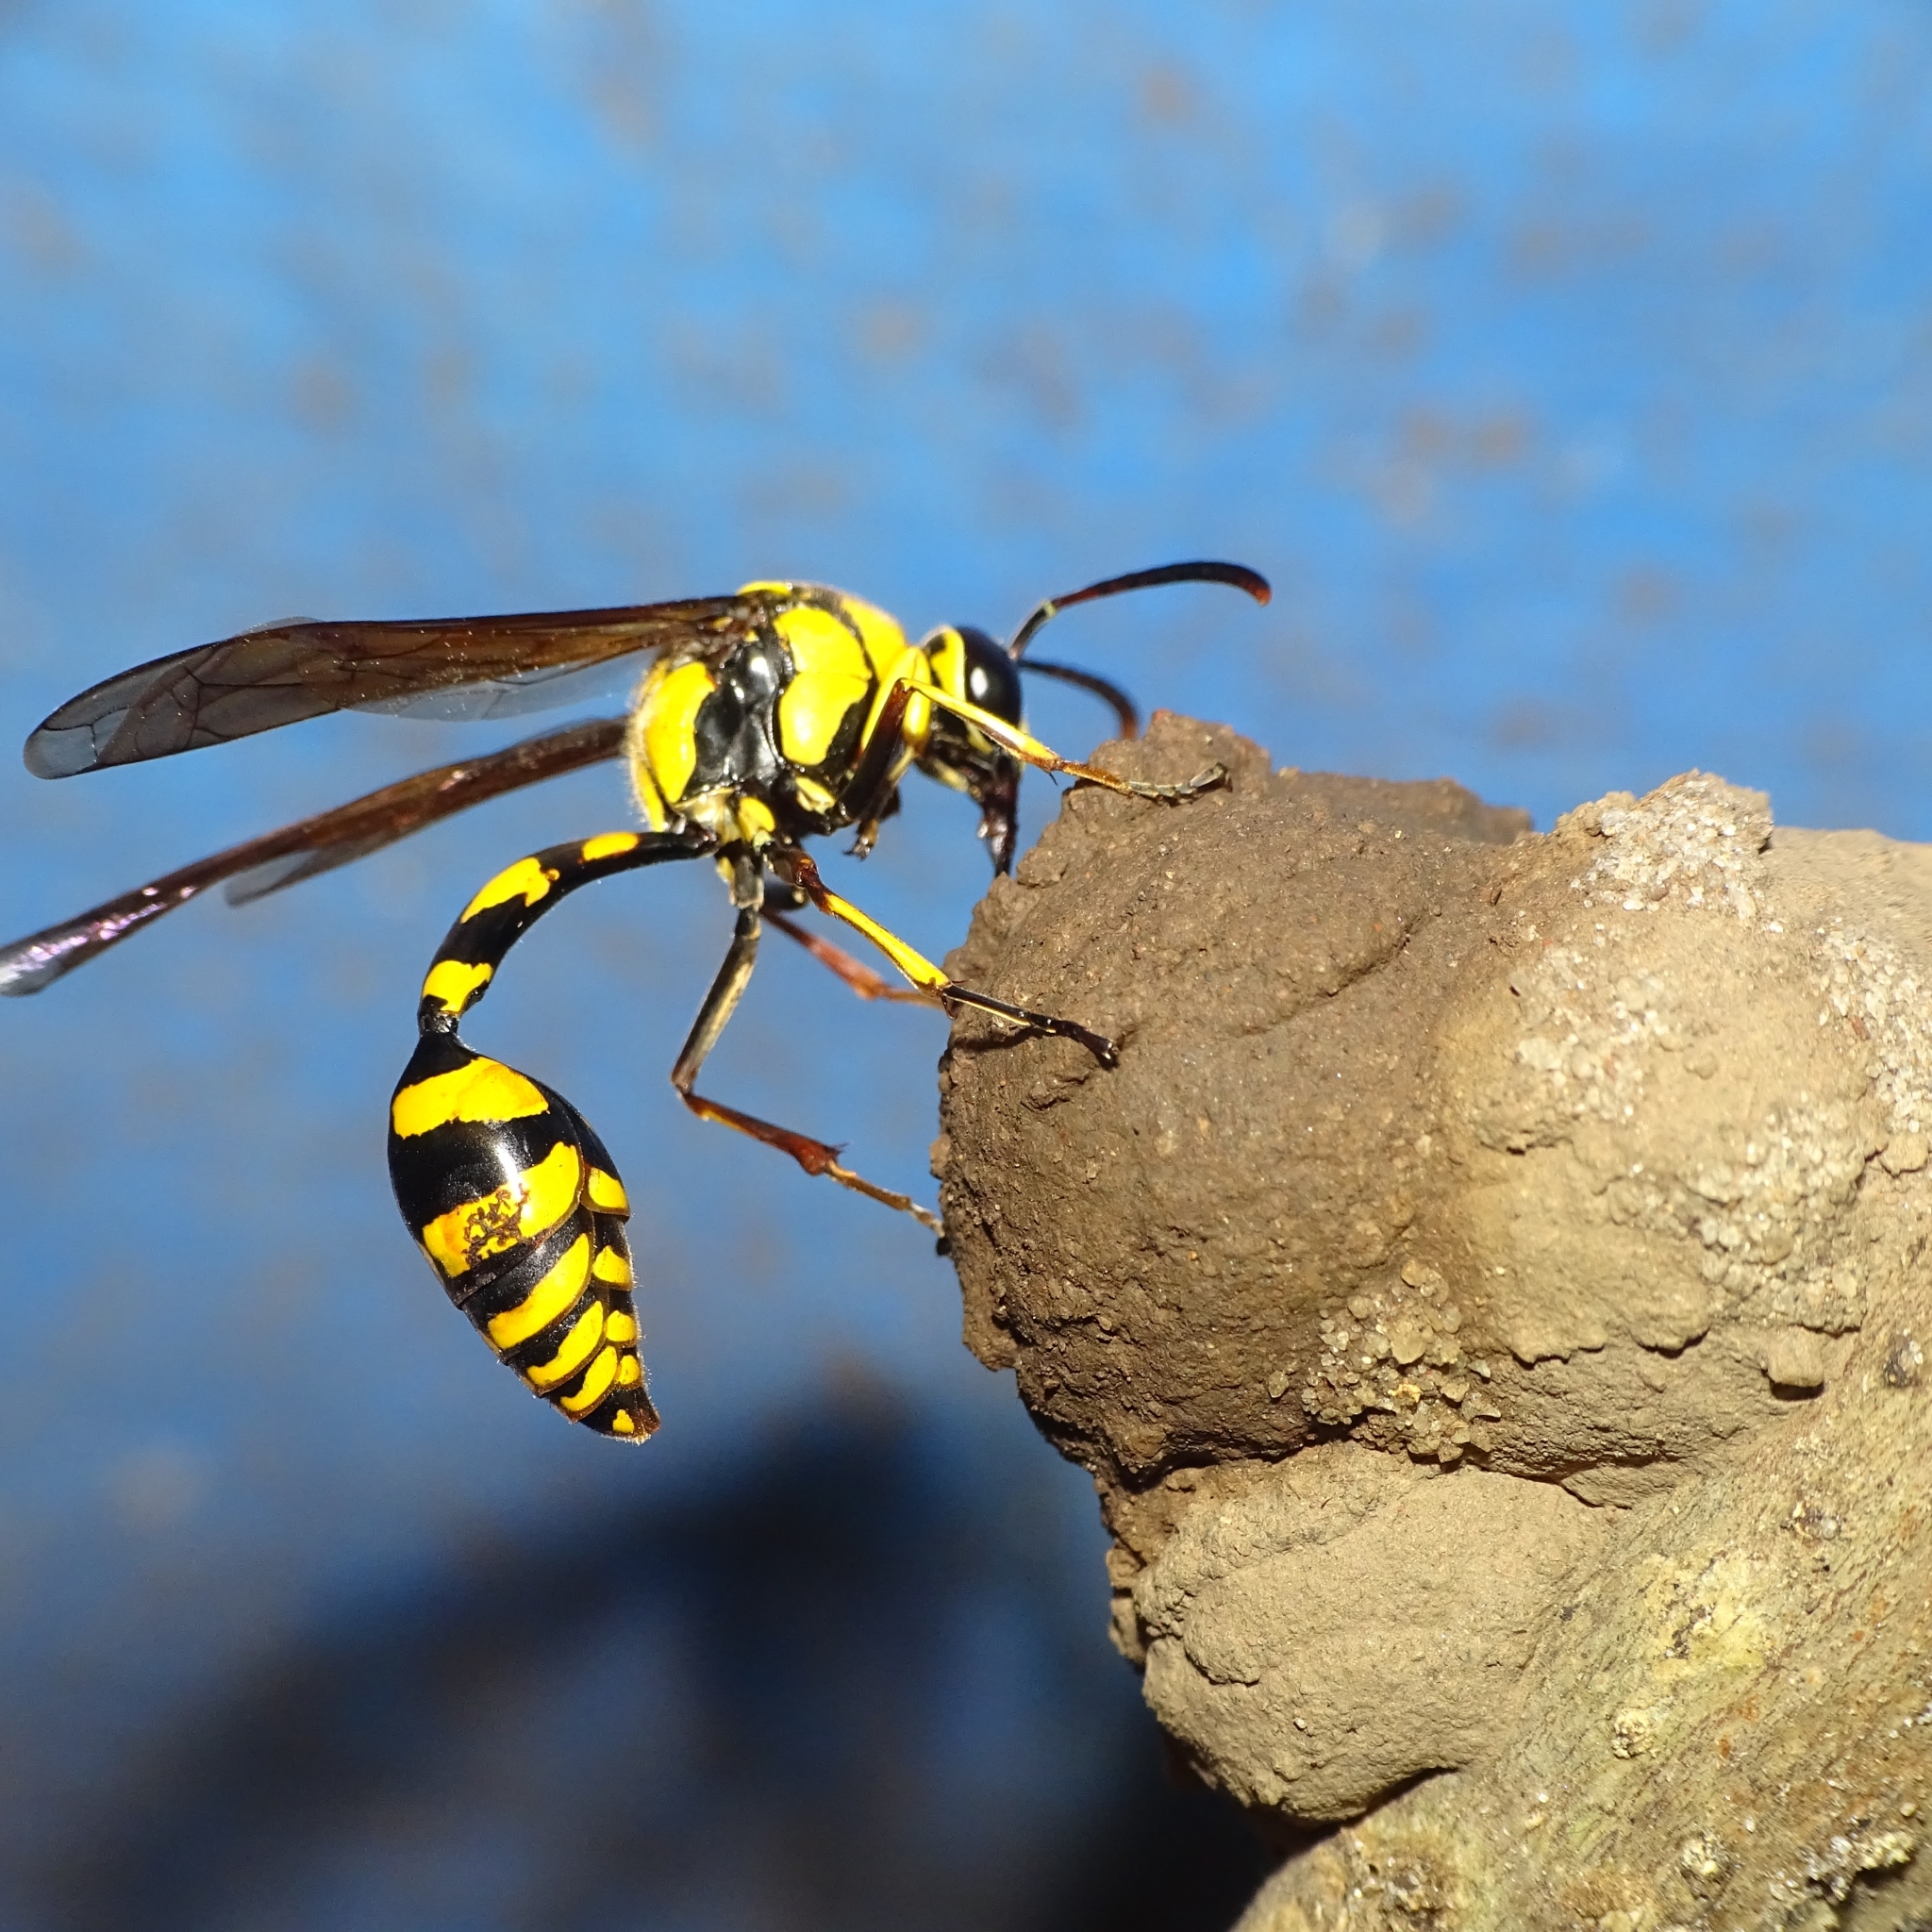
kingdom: Animalia
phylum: Arthropoda
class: Insecta
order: Hymenoptera
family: Eumenidae
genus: Phimenes
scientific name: Phimenes flavopictus
